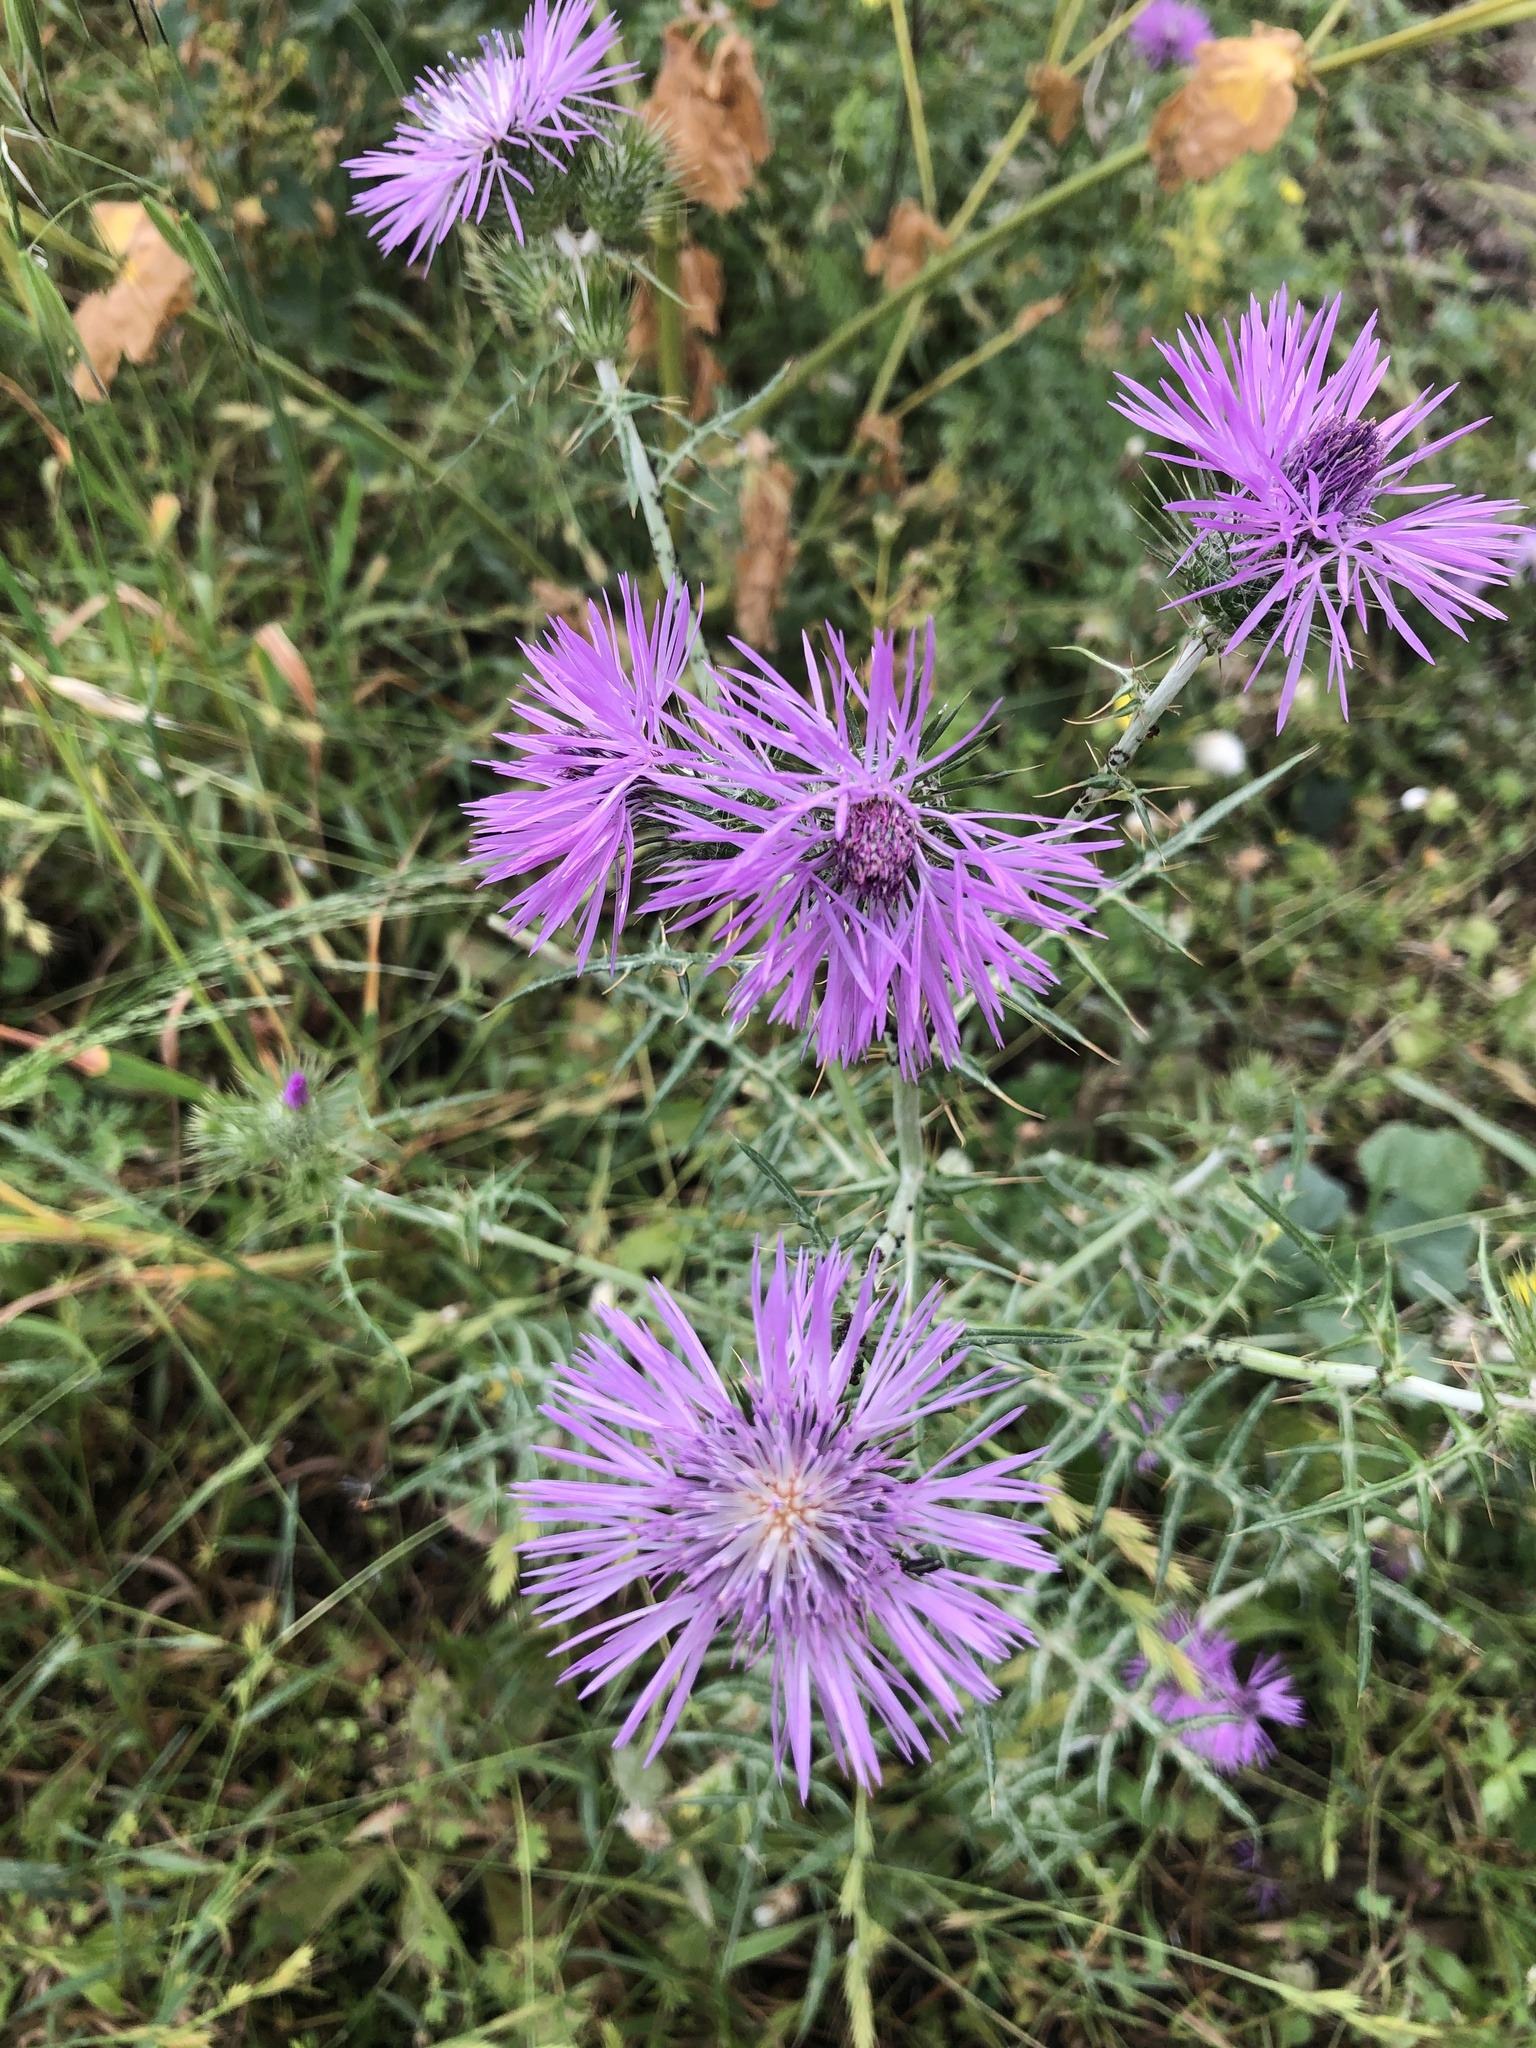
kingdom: Plantae
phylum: Tracheophyta
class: Magnoliopsida
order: Asterales
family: Asteraceae
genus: Galactites
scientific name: Galactites tomentosa
